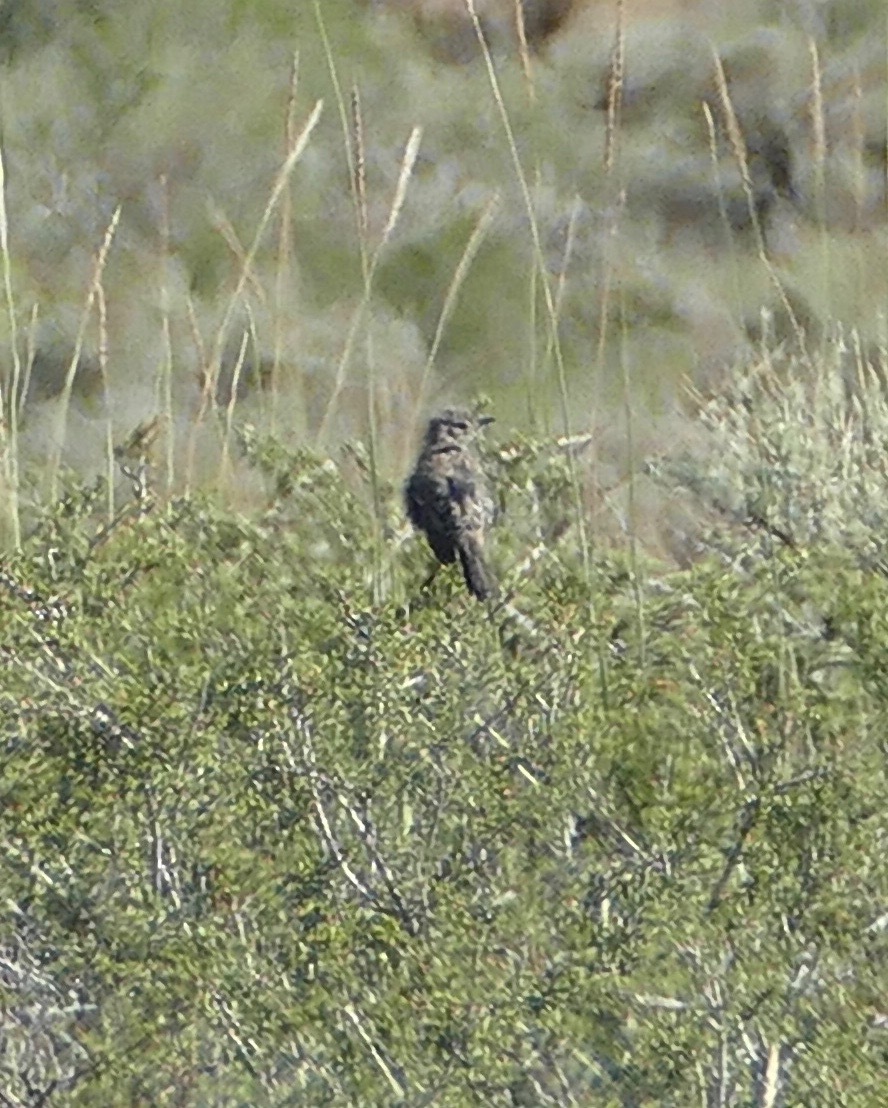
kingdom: Animalia
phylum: Chordata
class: Aves
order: Passeriformes
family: Mimidae
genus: Oreoscoptes
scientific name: Oreoscoptes montanus
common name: Sage thrasher
